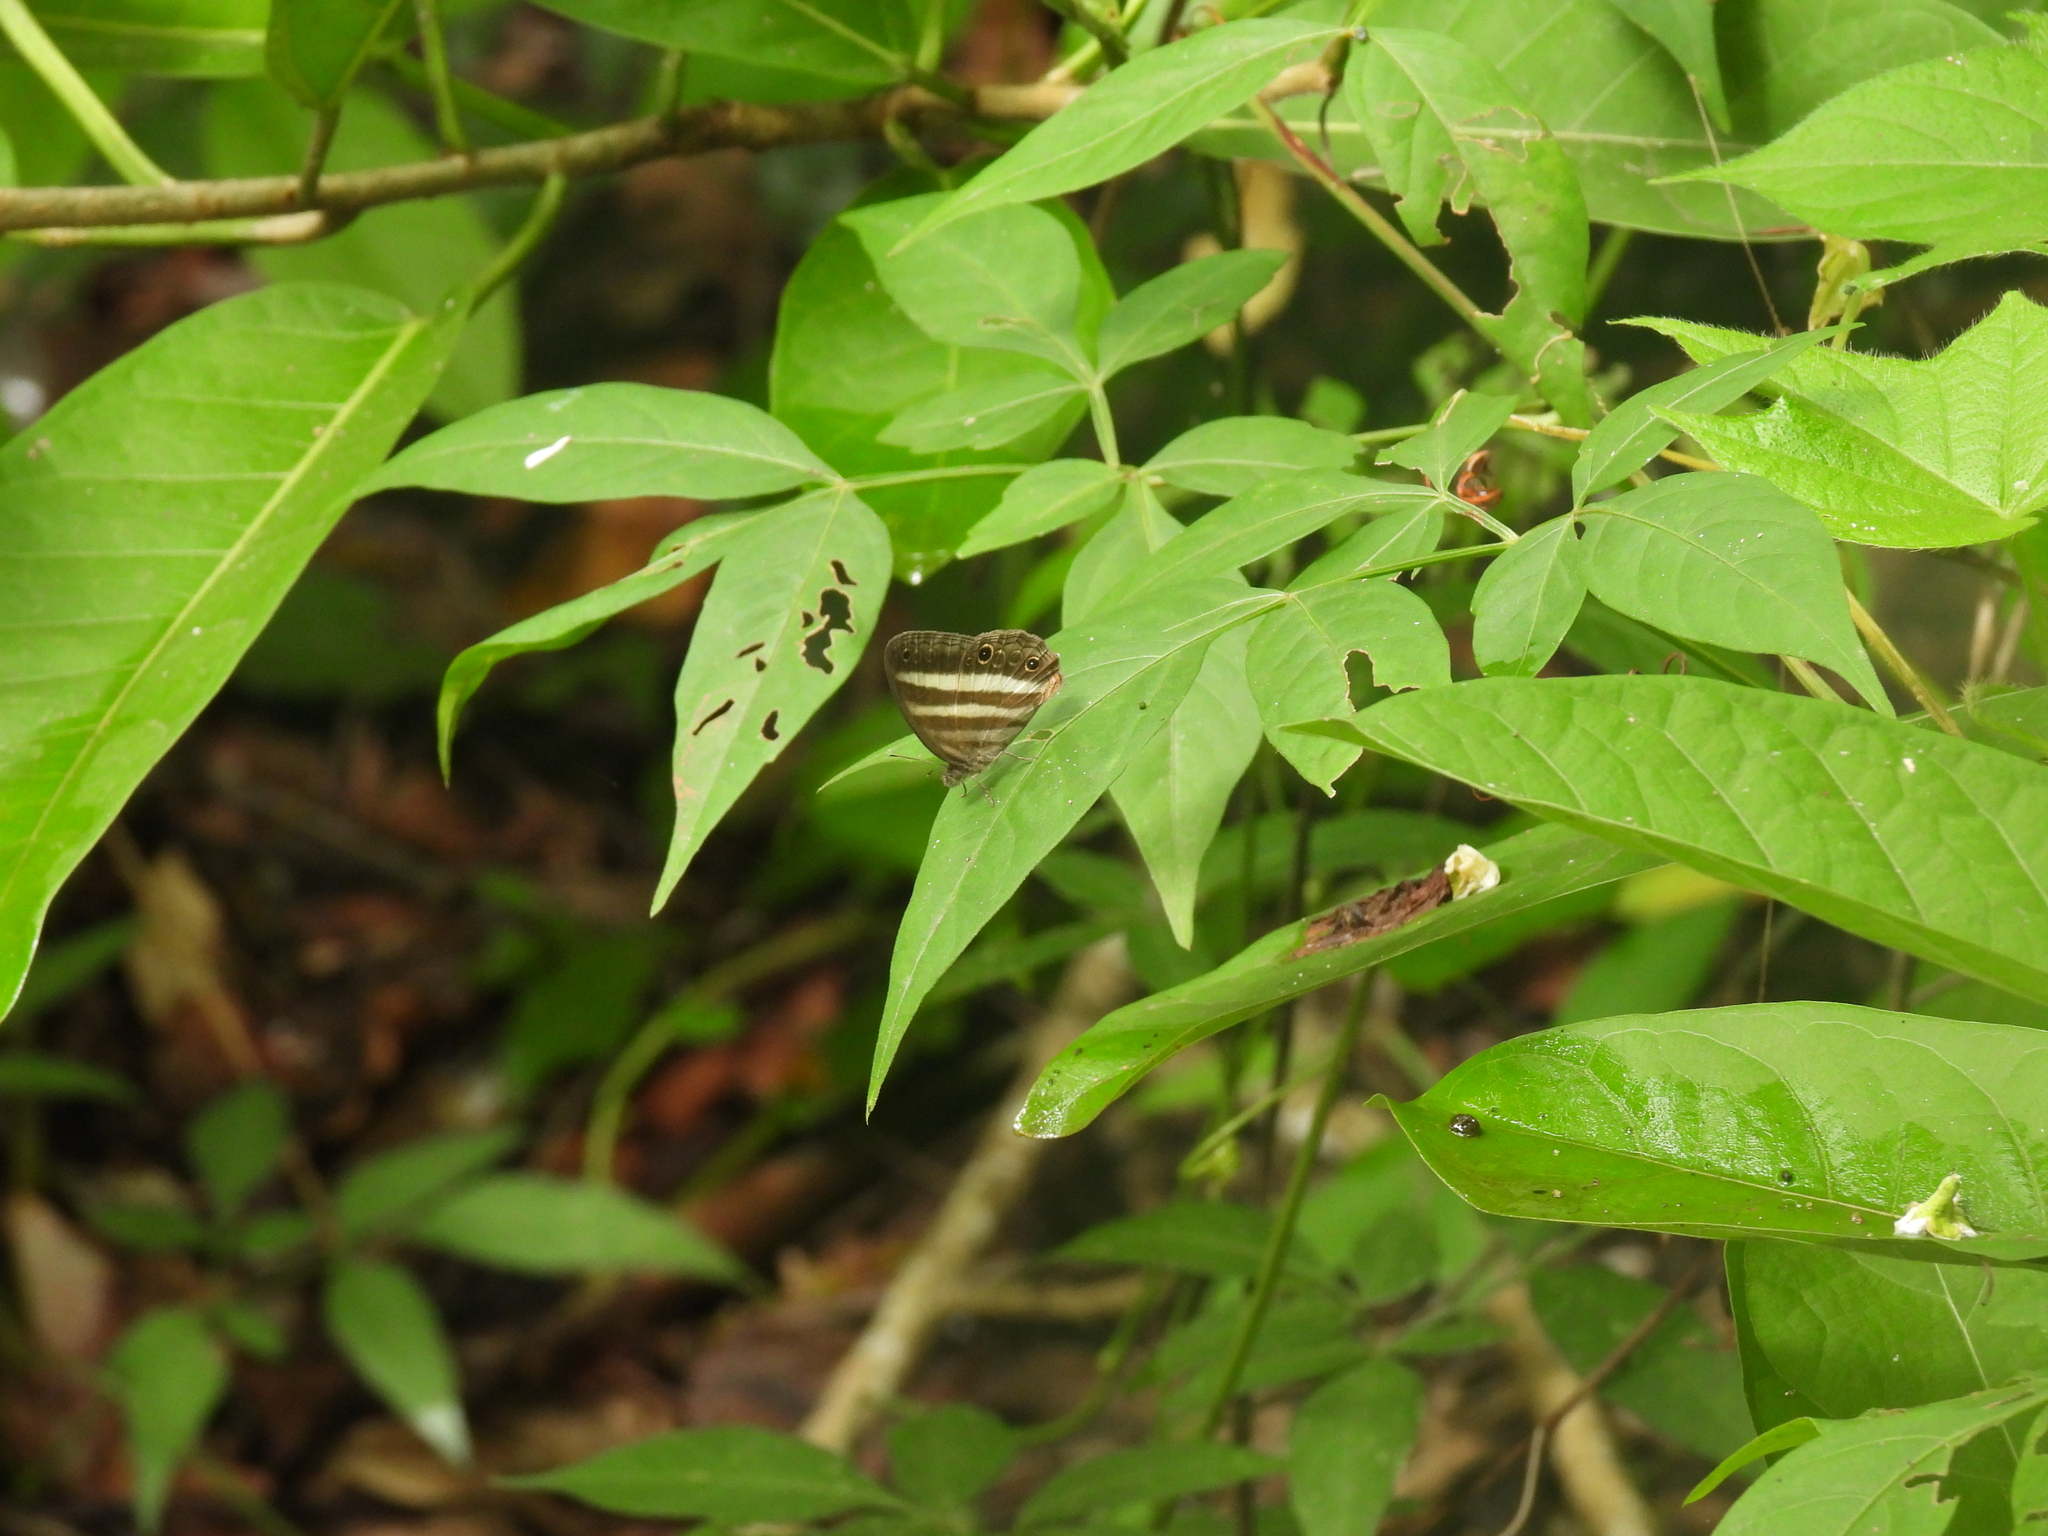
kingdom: Animalia
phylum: Arthropoda
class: Insecta
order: Lepidoptera
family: Nymphalidae
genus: Pareuptychia
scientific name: Pareuptychia hesione
